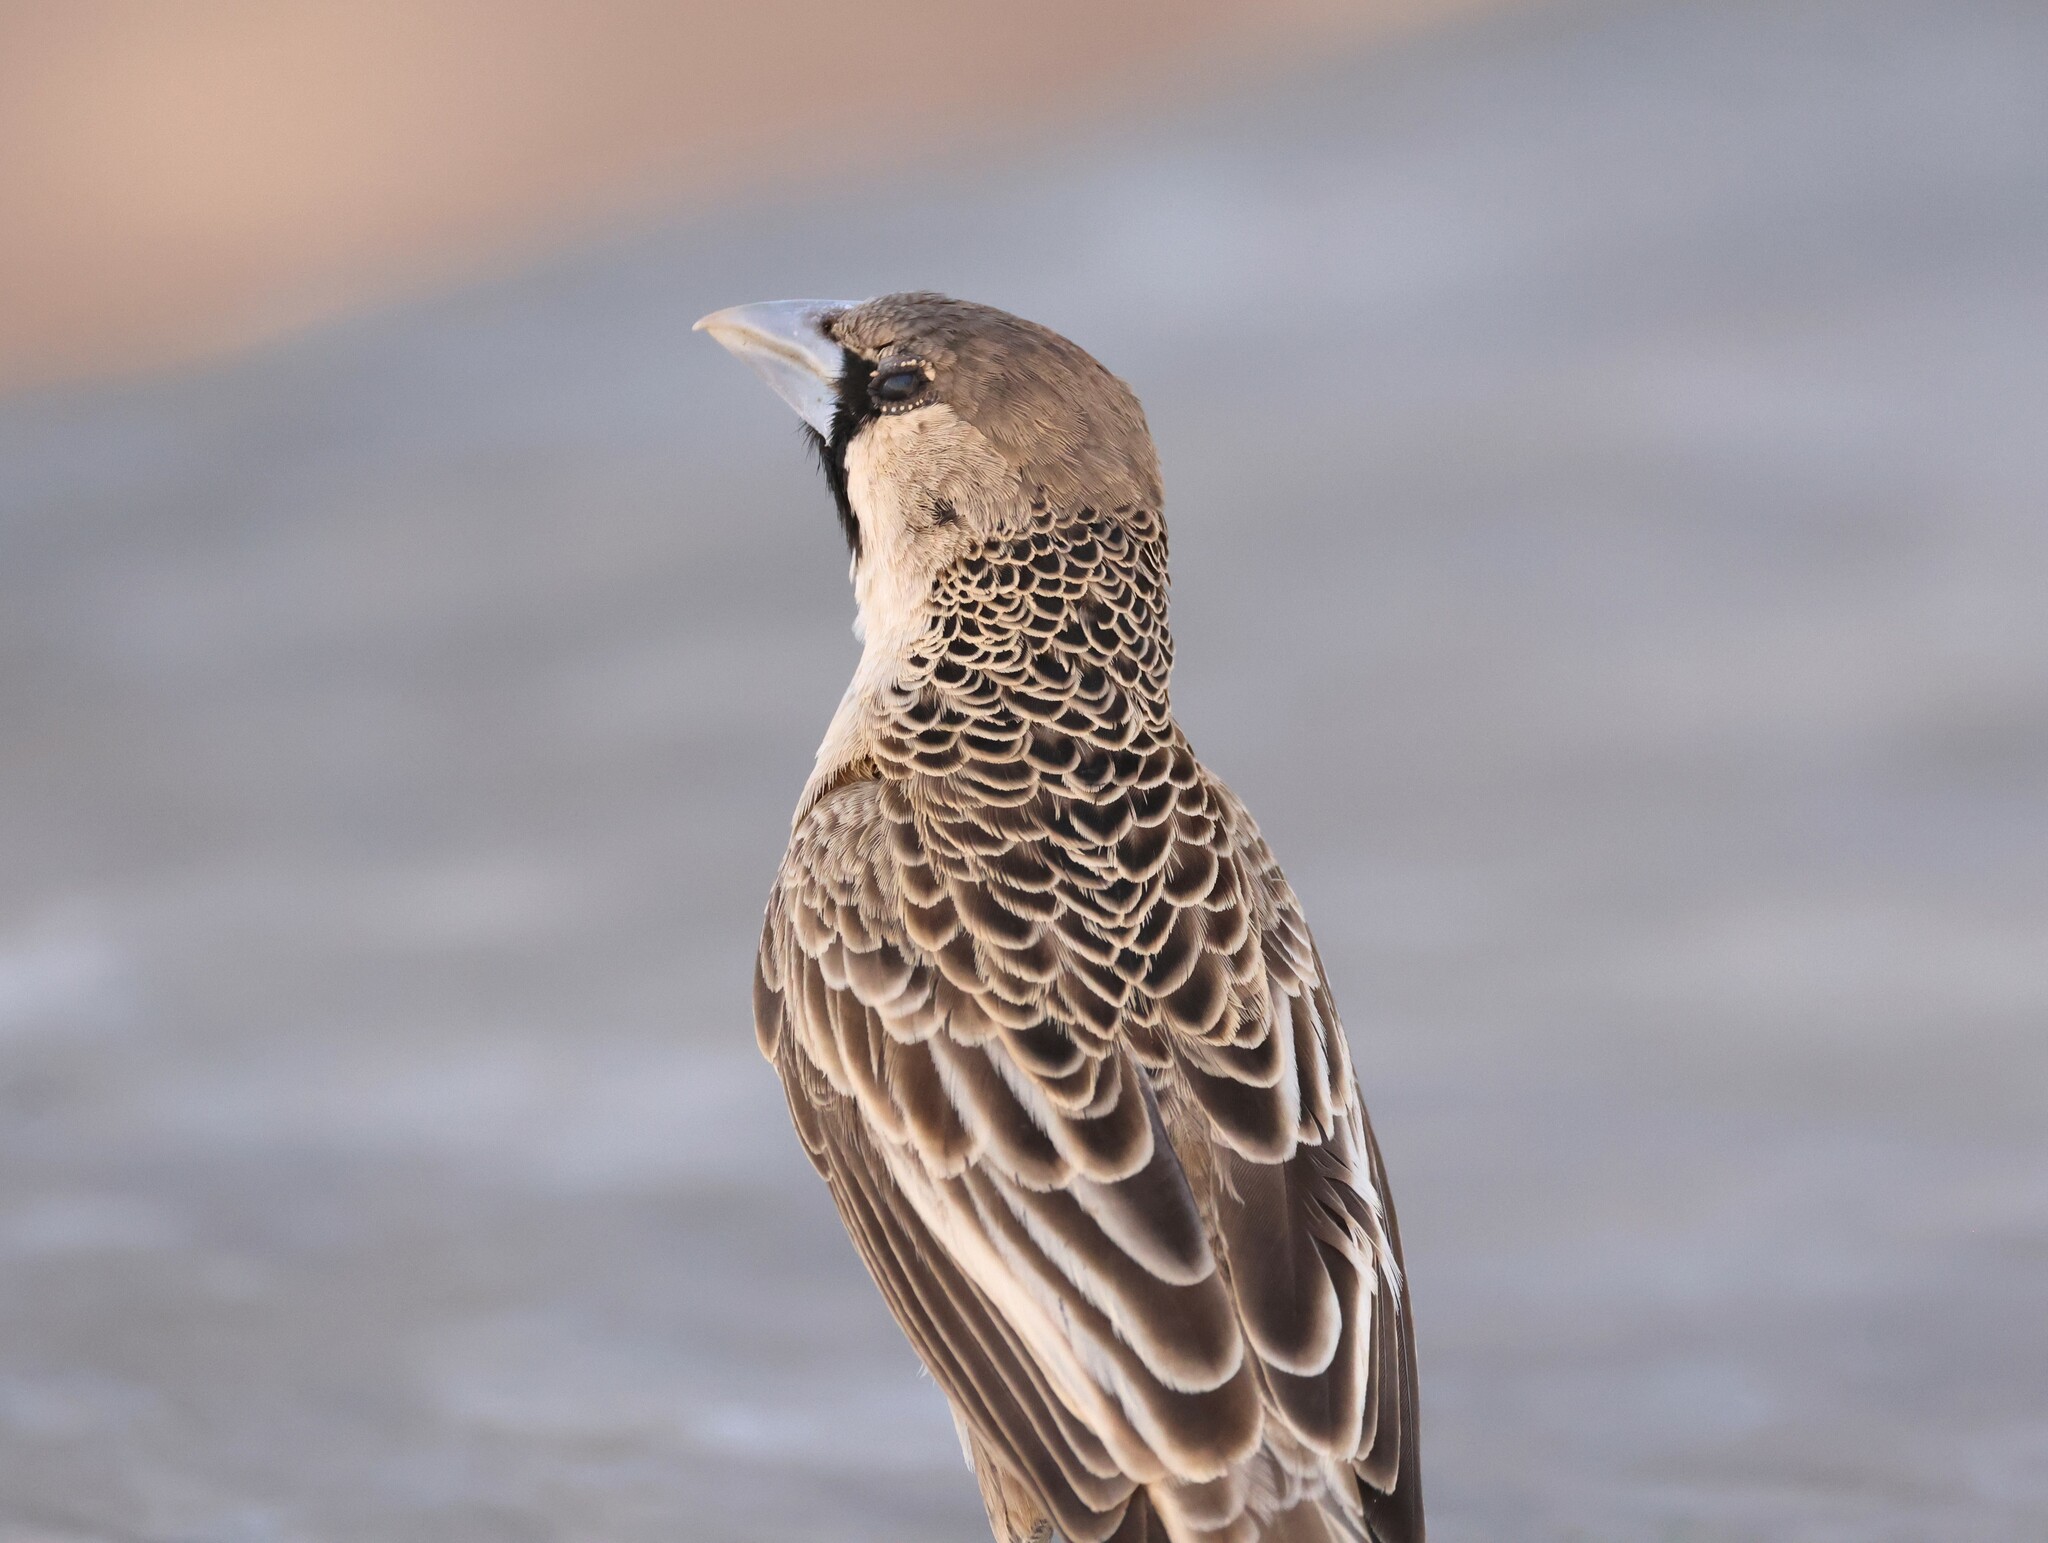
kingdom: Animalia
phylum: Chordata
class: Aves
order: Passeriformes
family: Passeridae
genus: Philetairus
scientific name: Philetairus socius
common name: Sociable weaver
